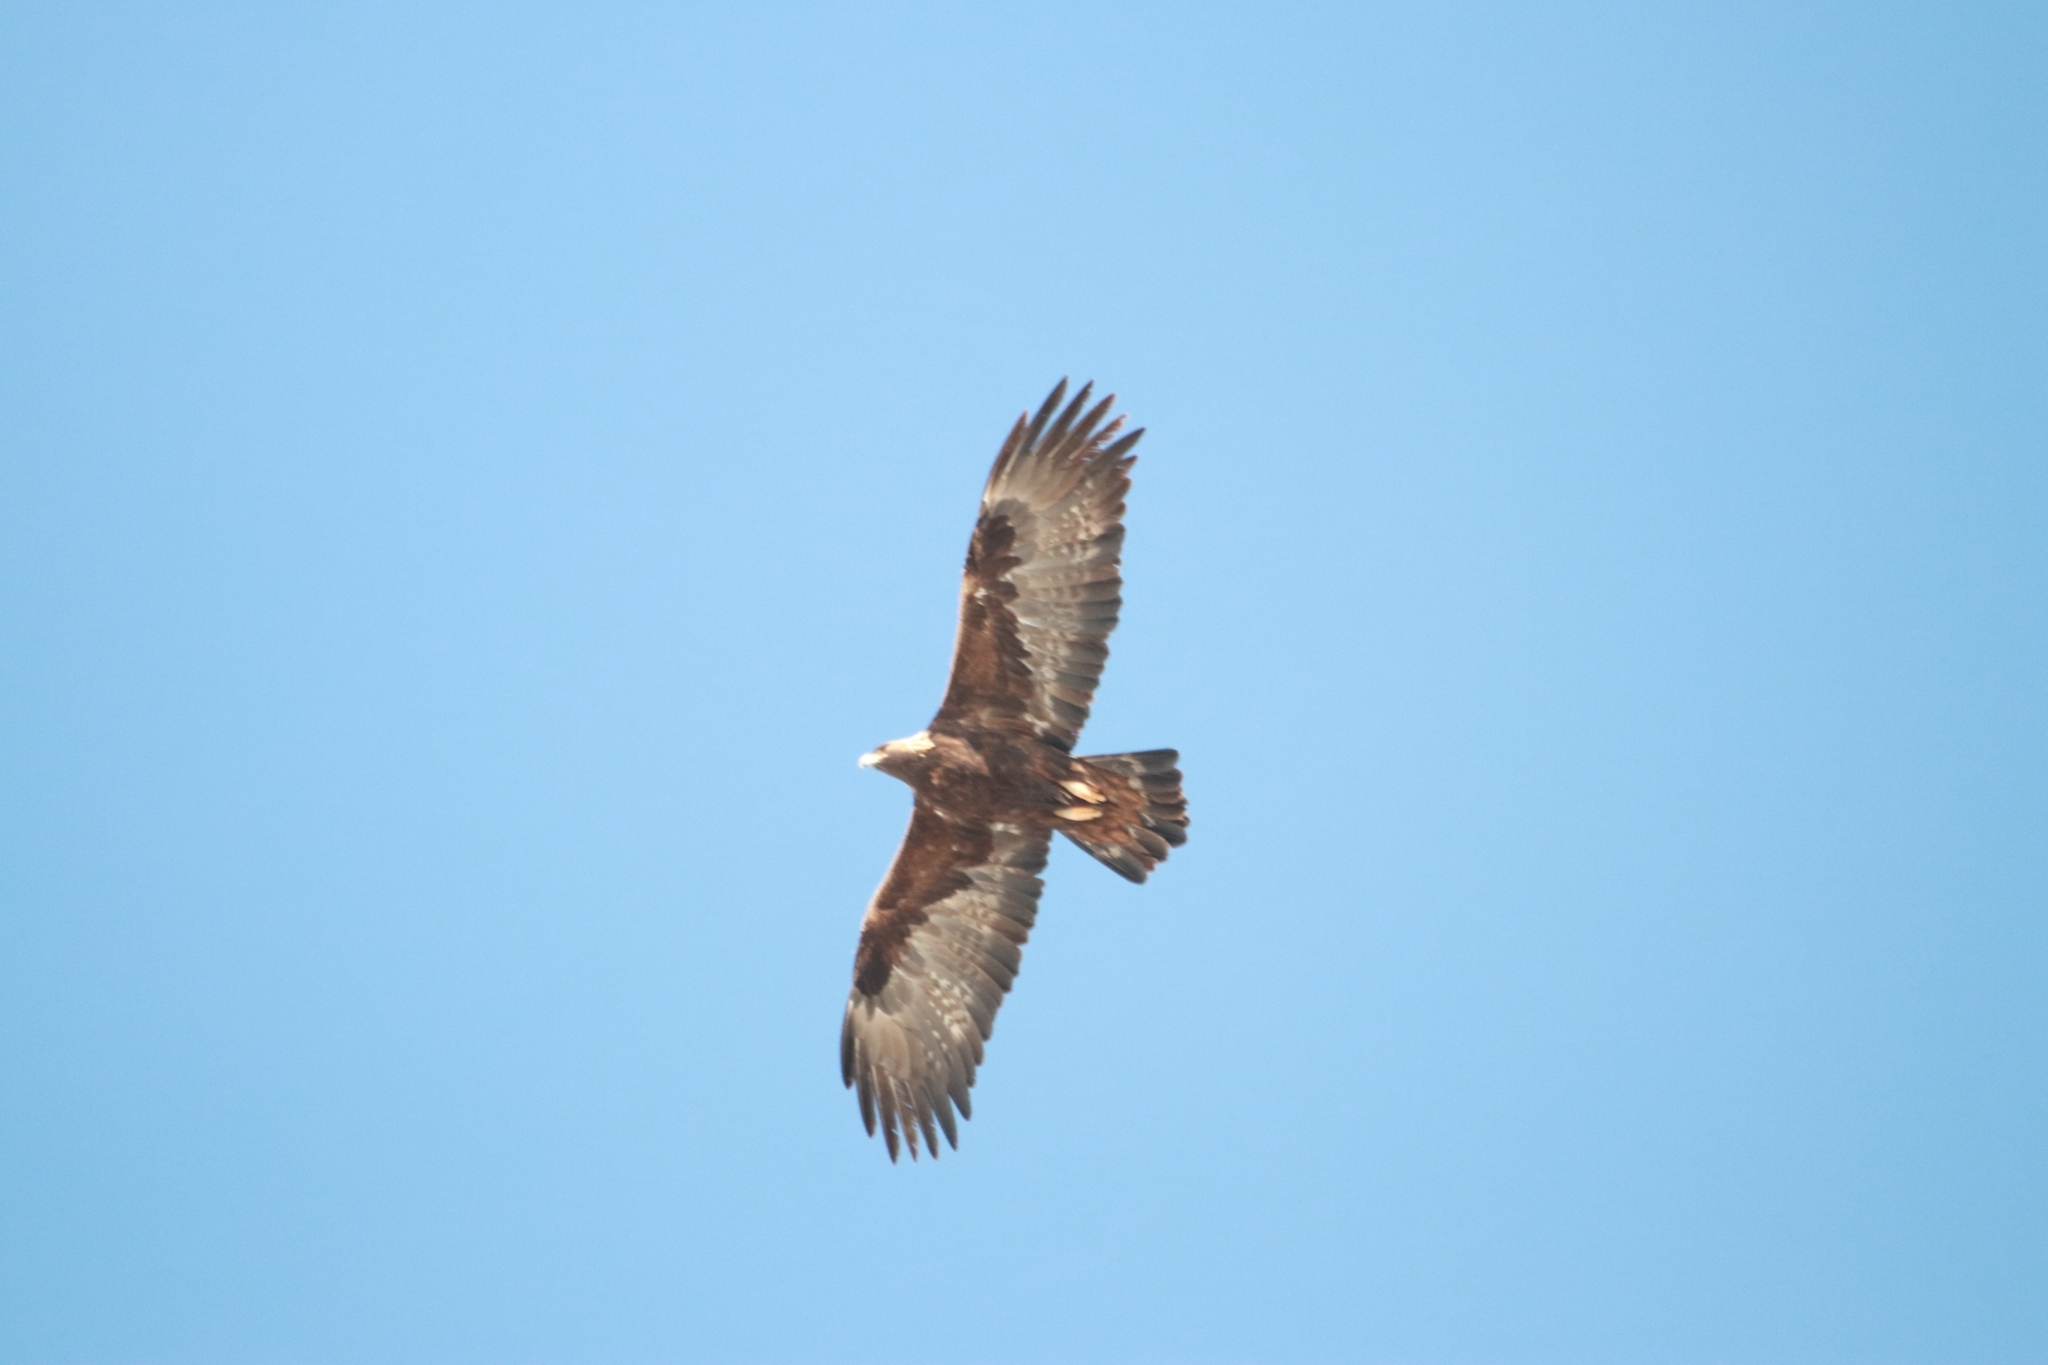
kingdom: Animalia
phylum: Chordata
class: Aves
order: Accipitriformes
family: Accipitridae
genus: Aquila
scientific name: Aquila chrysaetos
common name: Golden eagle
